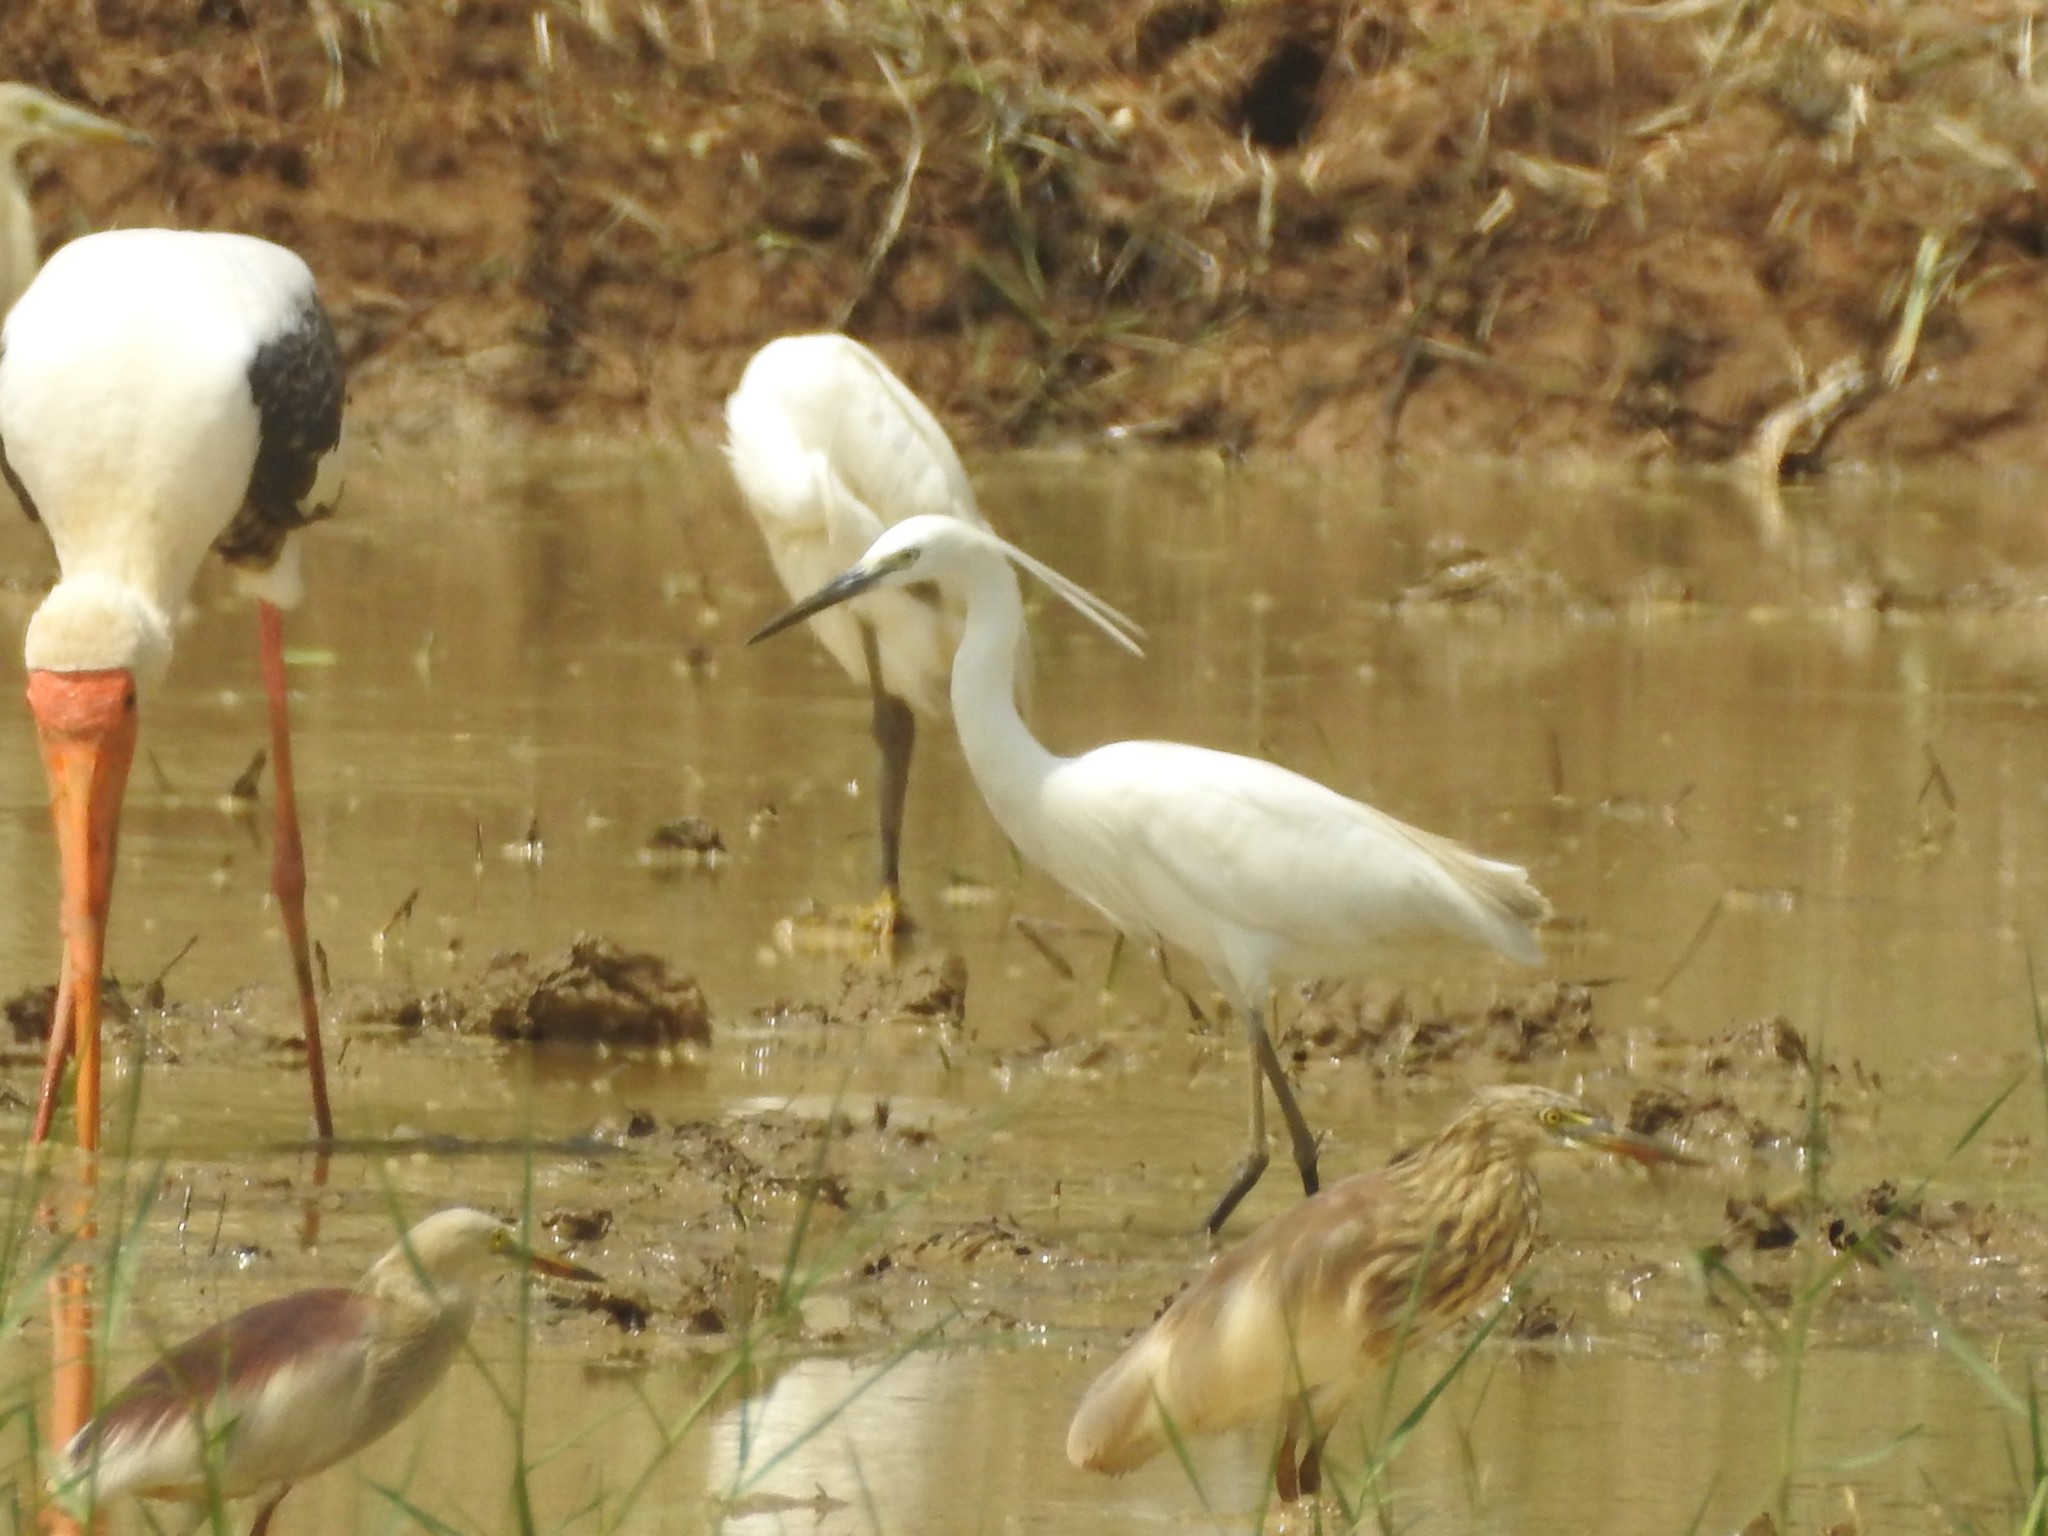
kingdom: Animalia
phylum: Chordata
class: Aves
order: Pelecaniformes
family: Ardeidae
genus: Egretta
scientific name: Egretta garzetta
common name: Little egret
